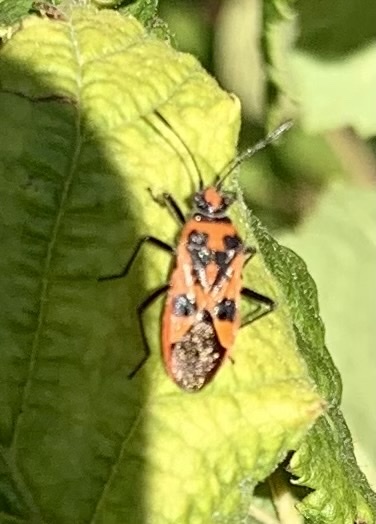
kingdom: Animalia
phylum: Arthropoda
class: Insecta
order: Hemiptera
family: Rhopalidae
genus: Corizus
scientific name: Corizus hyoscyami
